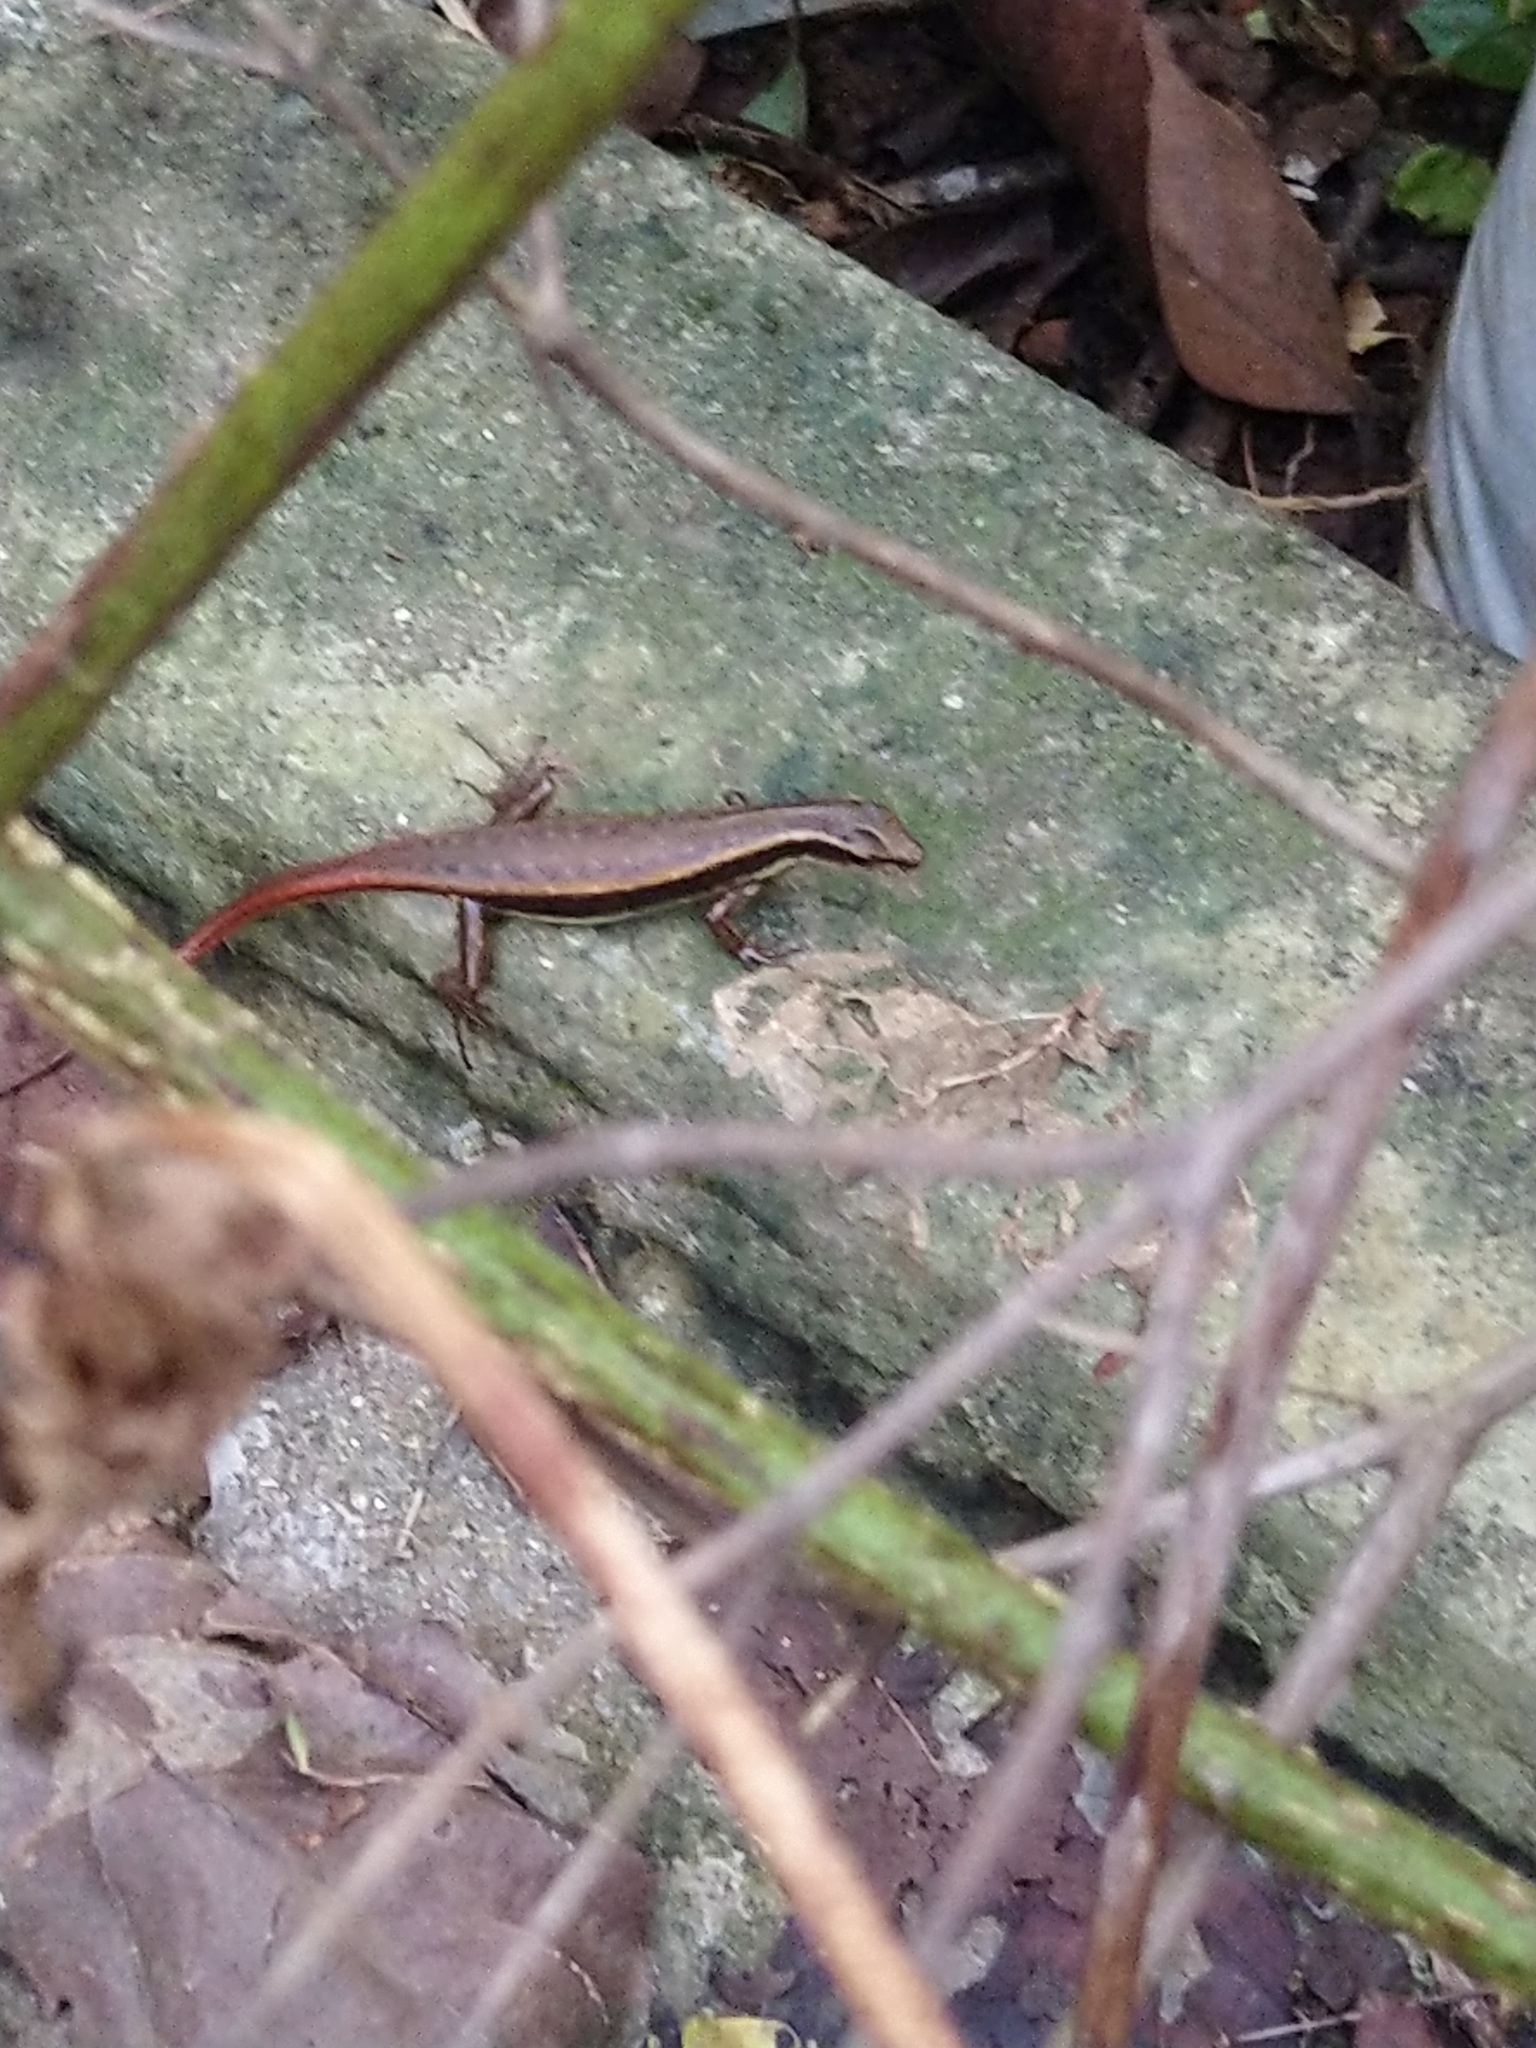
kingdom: Animalia
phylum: Chordata
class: Squamata
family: Scincidae
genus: Sphenomorphus
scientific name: Sphenomorphus dussumieri
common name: Dussumier's forest skink
